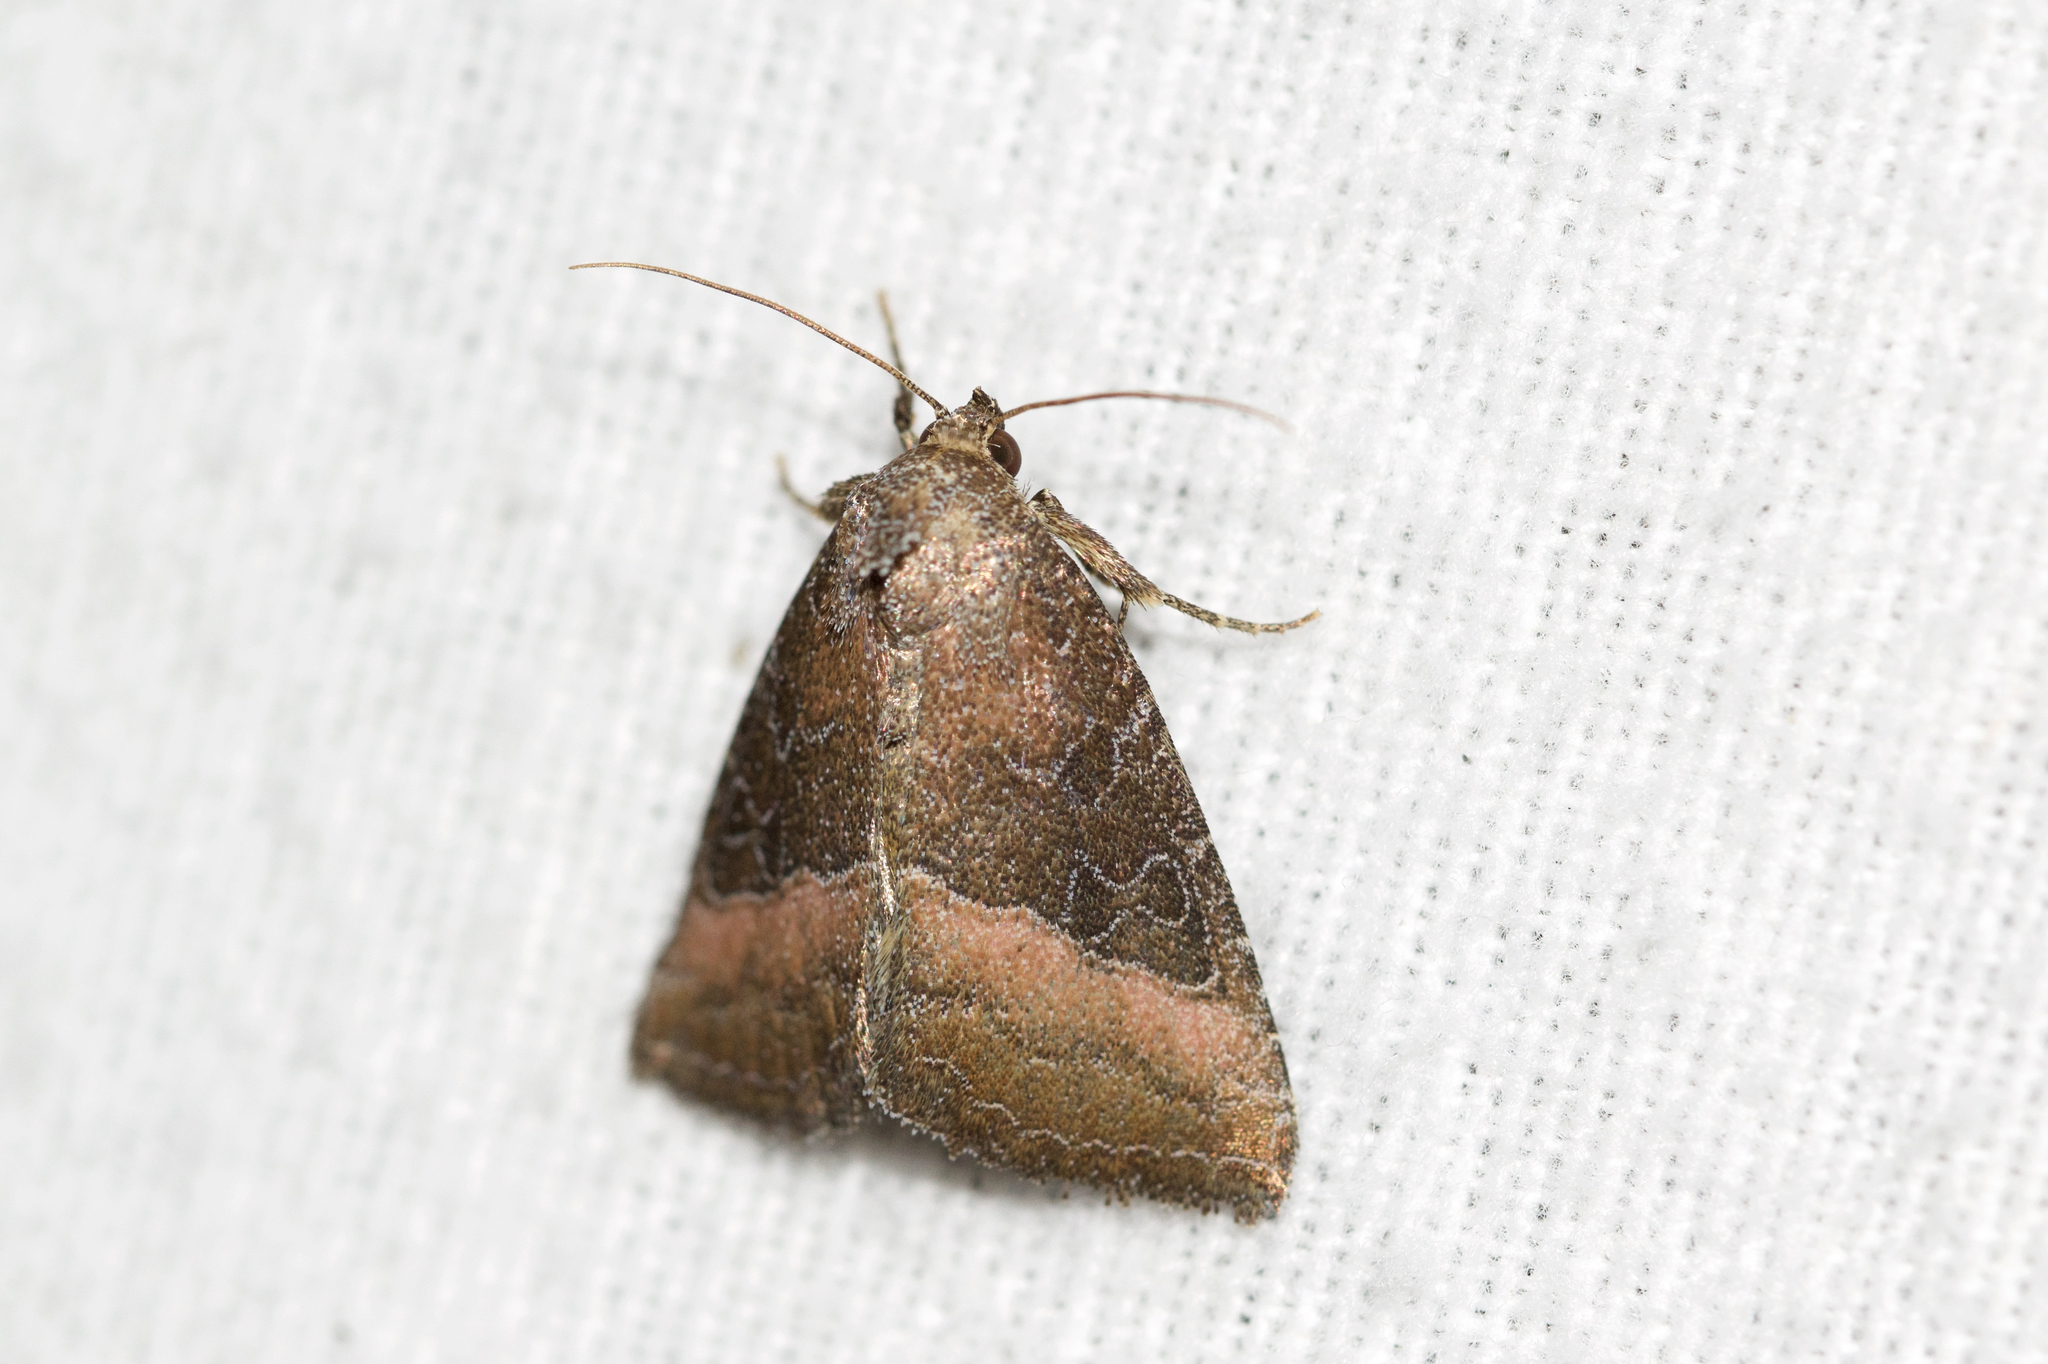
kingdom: Animalia
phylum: Arthropoda
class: Insecta
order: Lepidoptera
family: Noctuidae
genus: Ogdoconta
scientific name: Ogdoconta cinereola
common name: Common pinkband
